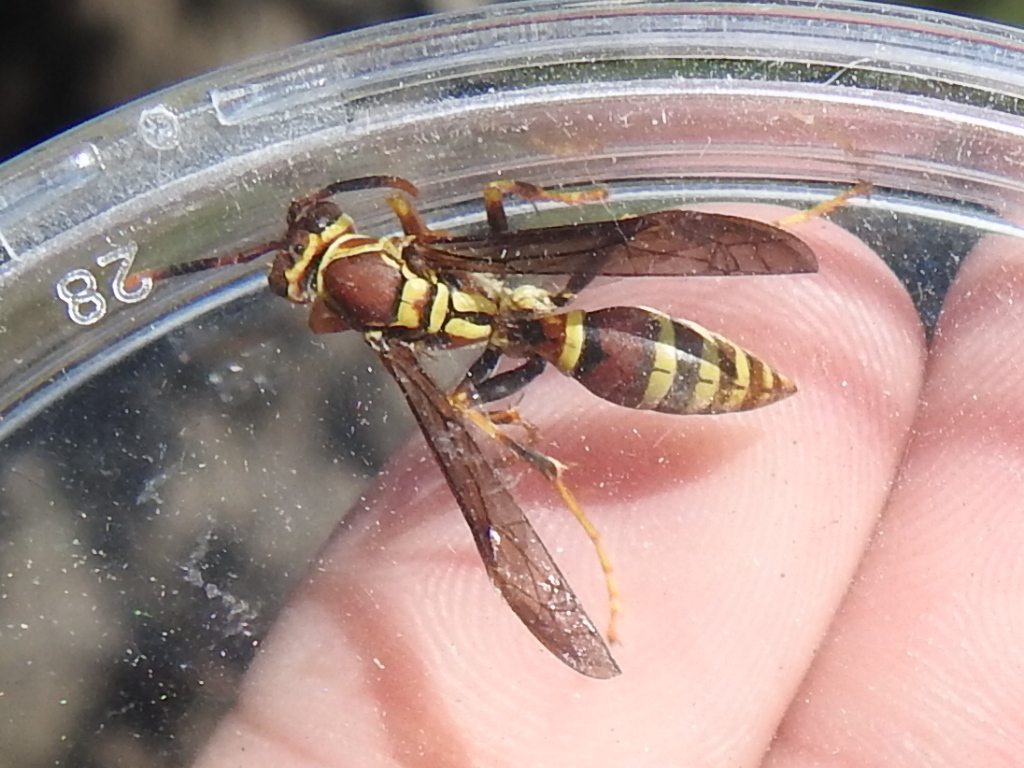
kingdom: Animalia
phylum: Arthropoda
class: Insecta
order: Hymenoptera
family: Eumenidae
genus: Polistes
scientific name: Polistes exclamans
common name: Paper wasp
